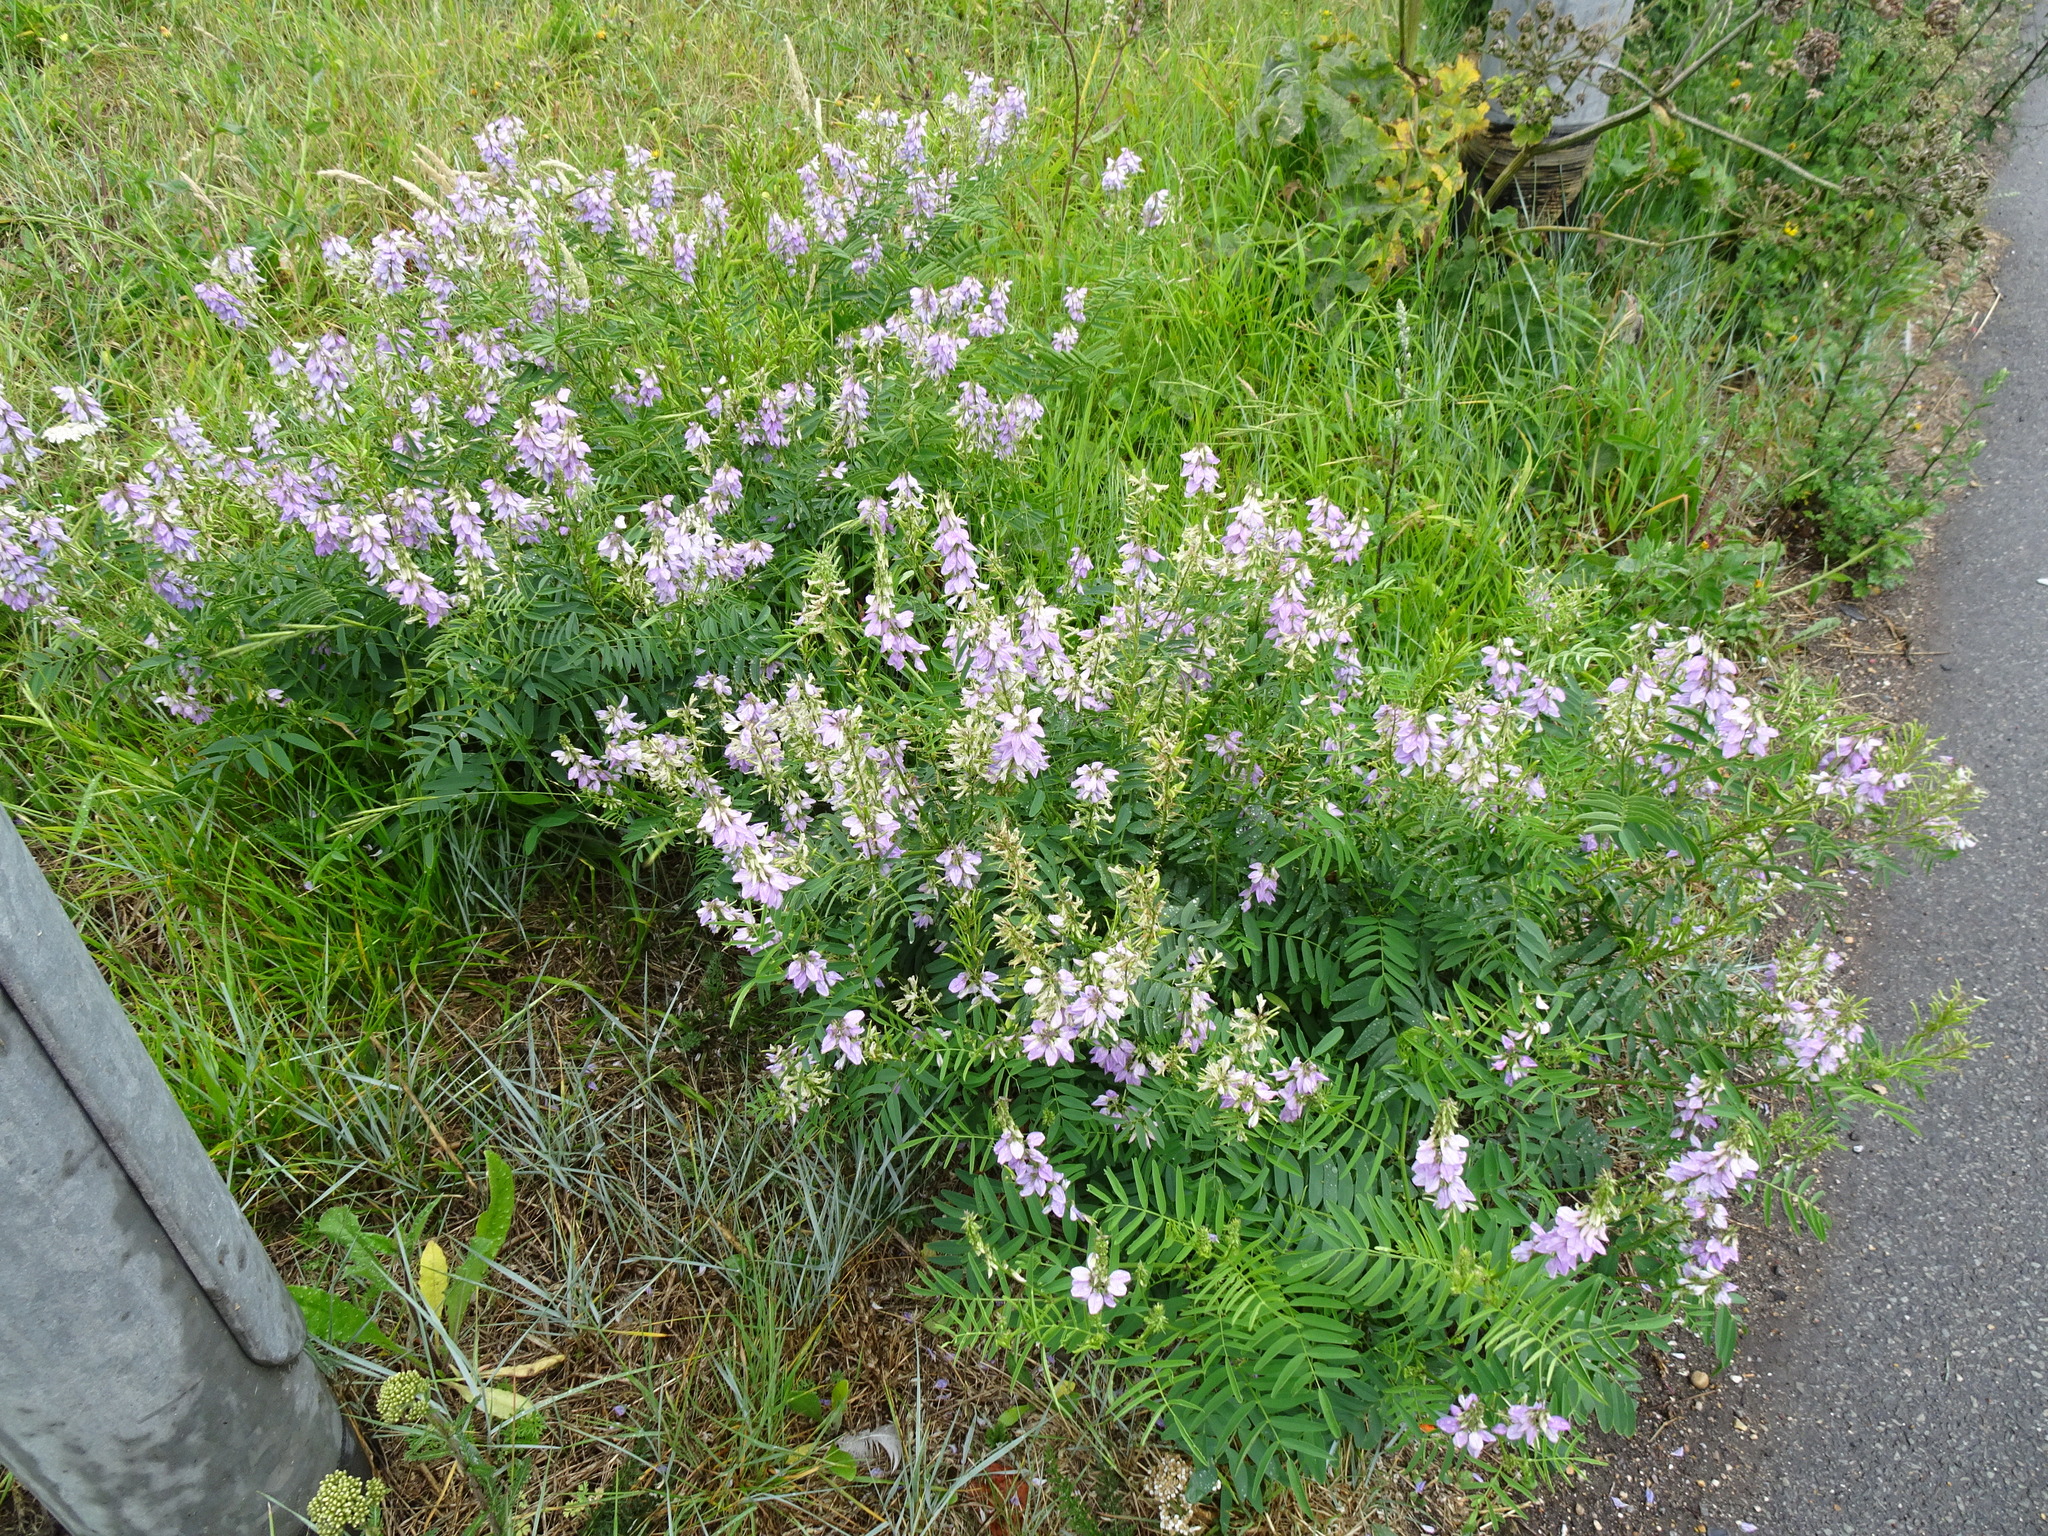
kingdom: Plantae
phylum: Tracheophyta
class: Magnoliopsida
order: Fabales
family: Fabaceae
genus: Galega
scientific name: Galega officinalis
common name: Goat's-rue
